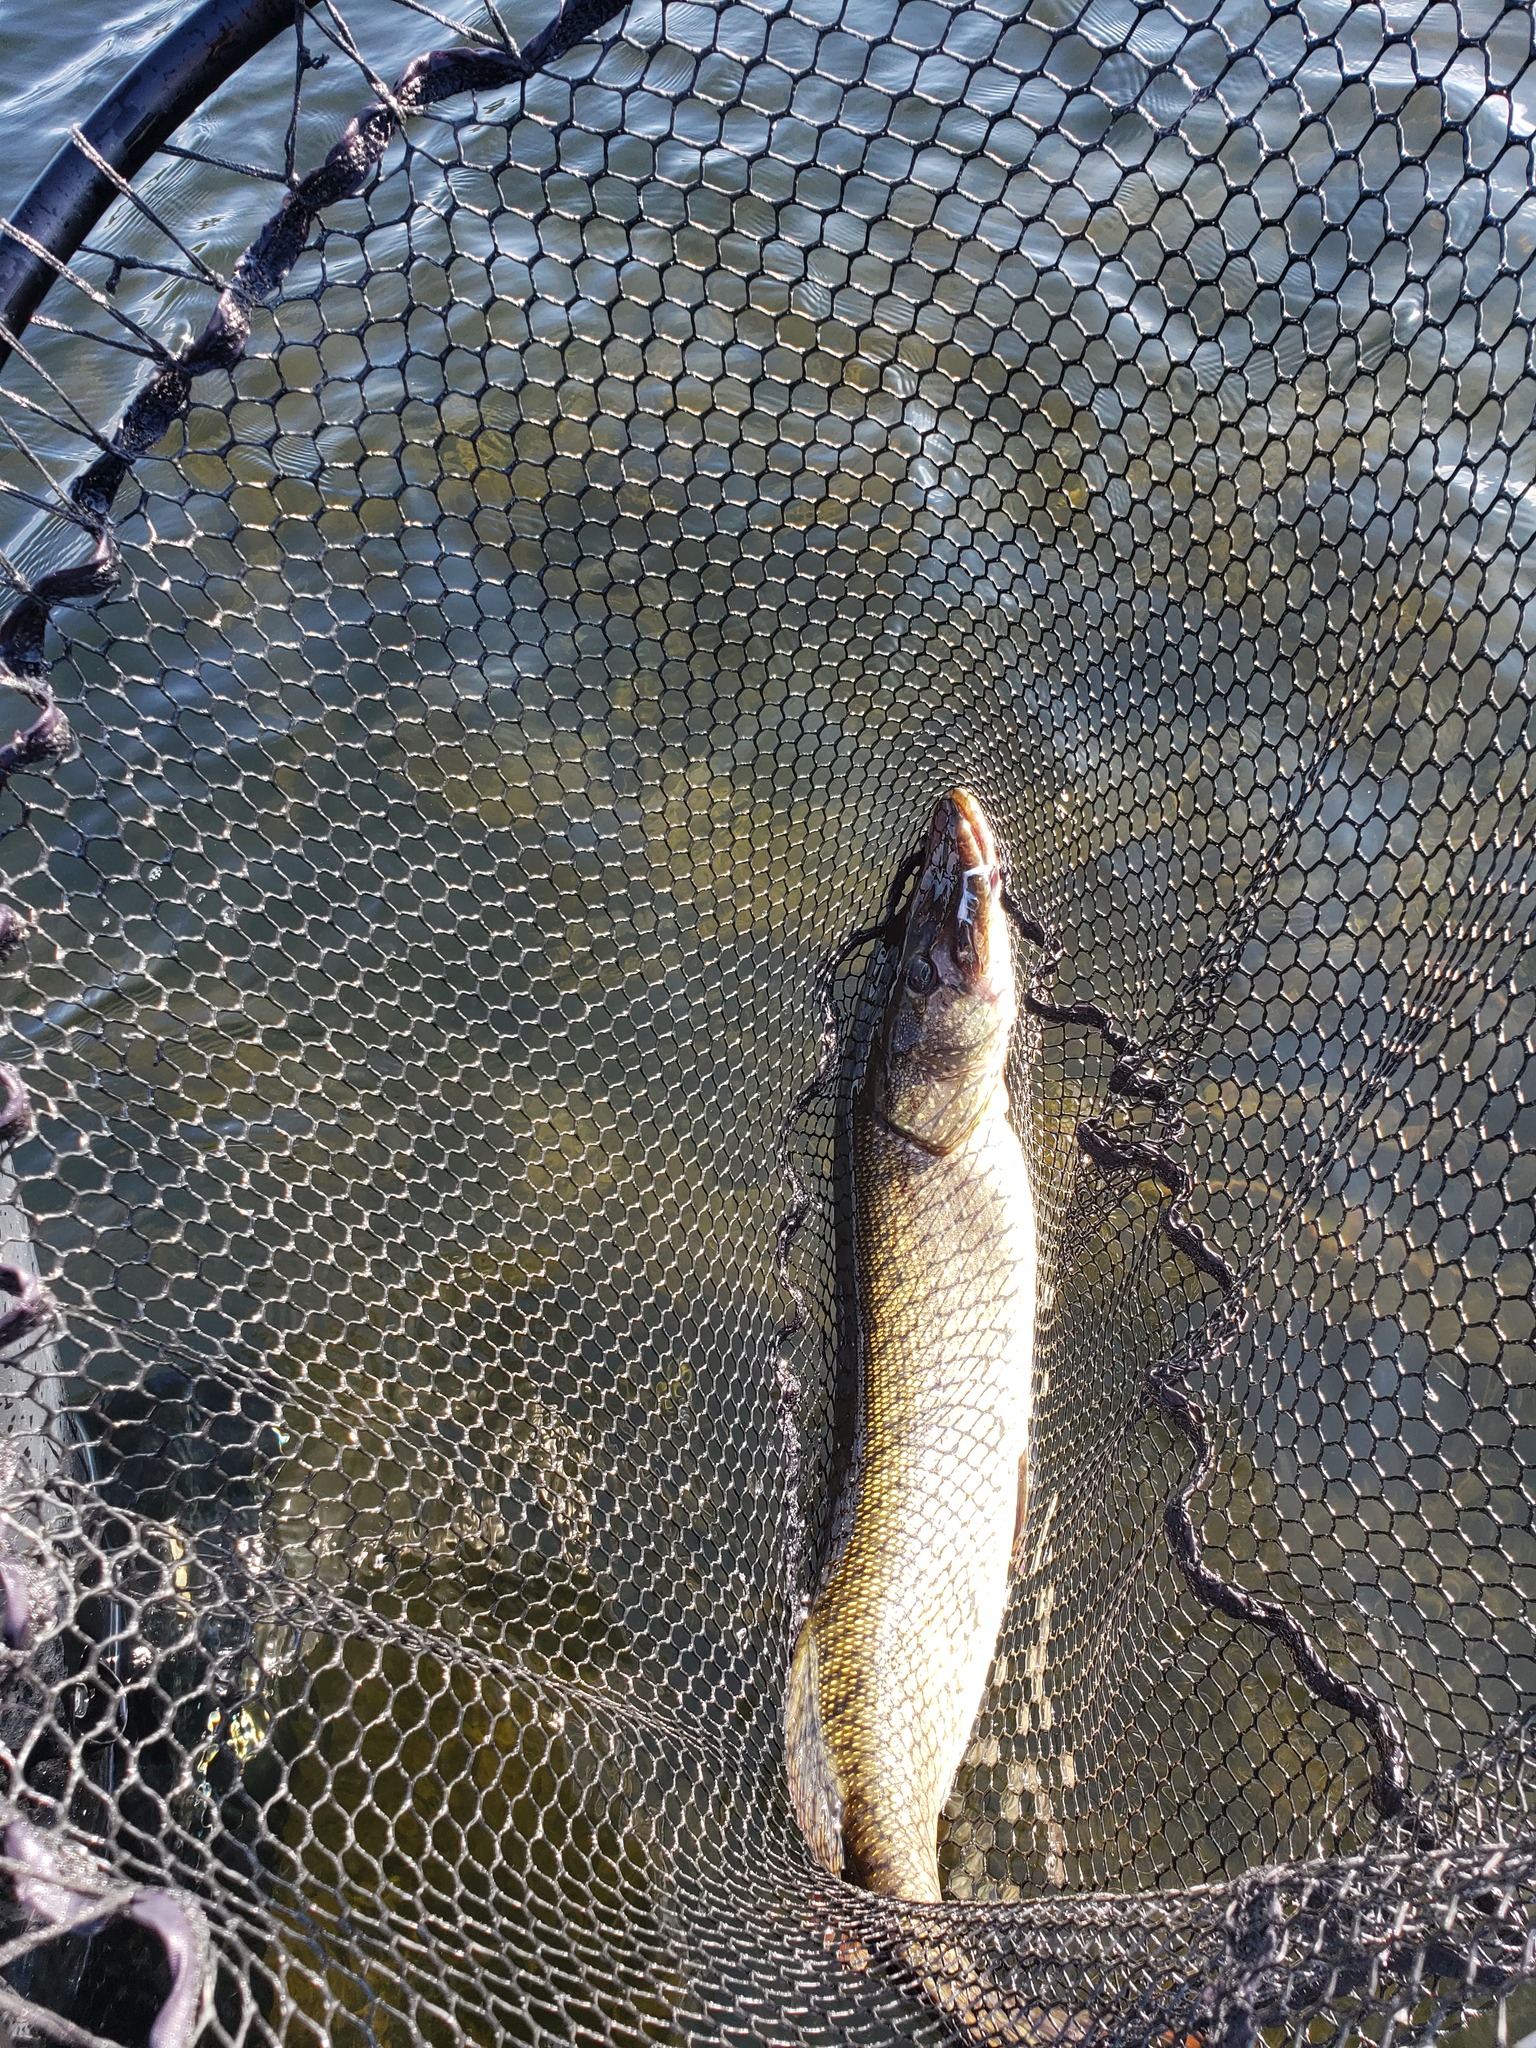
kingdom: Animalia
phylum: Chordata
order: Esociformes
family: Esocidae
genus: Esox
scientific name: Esox lucius
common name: Northern pike
